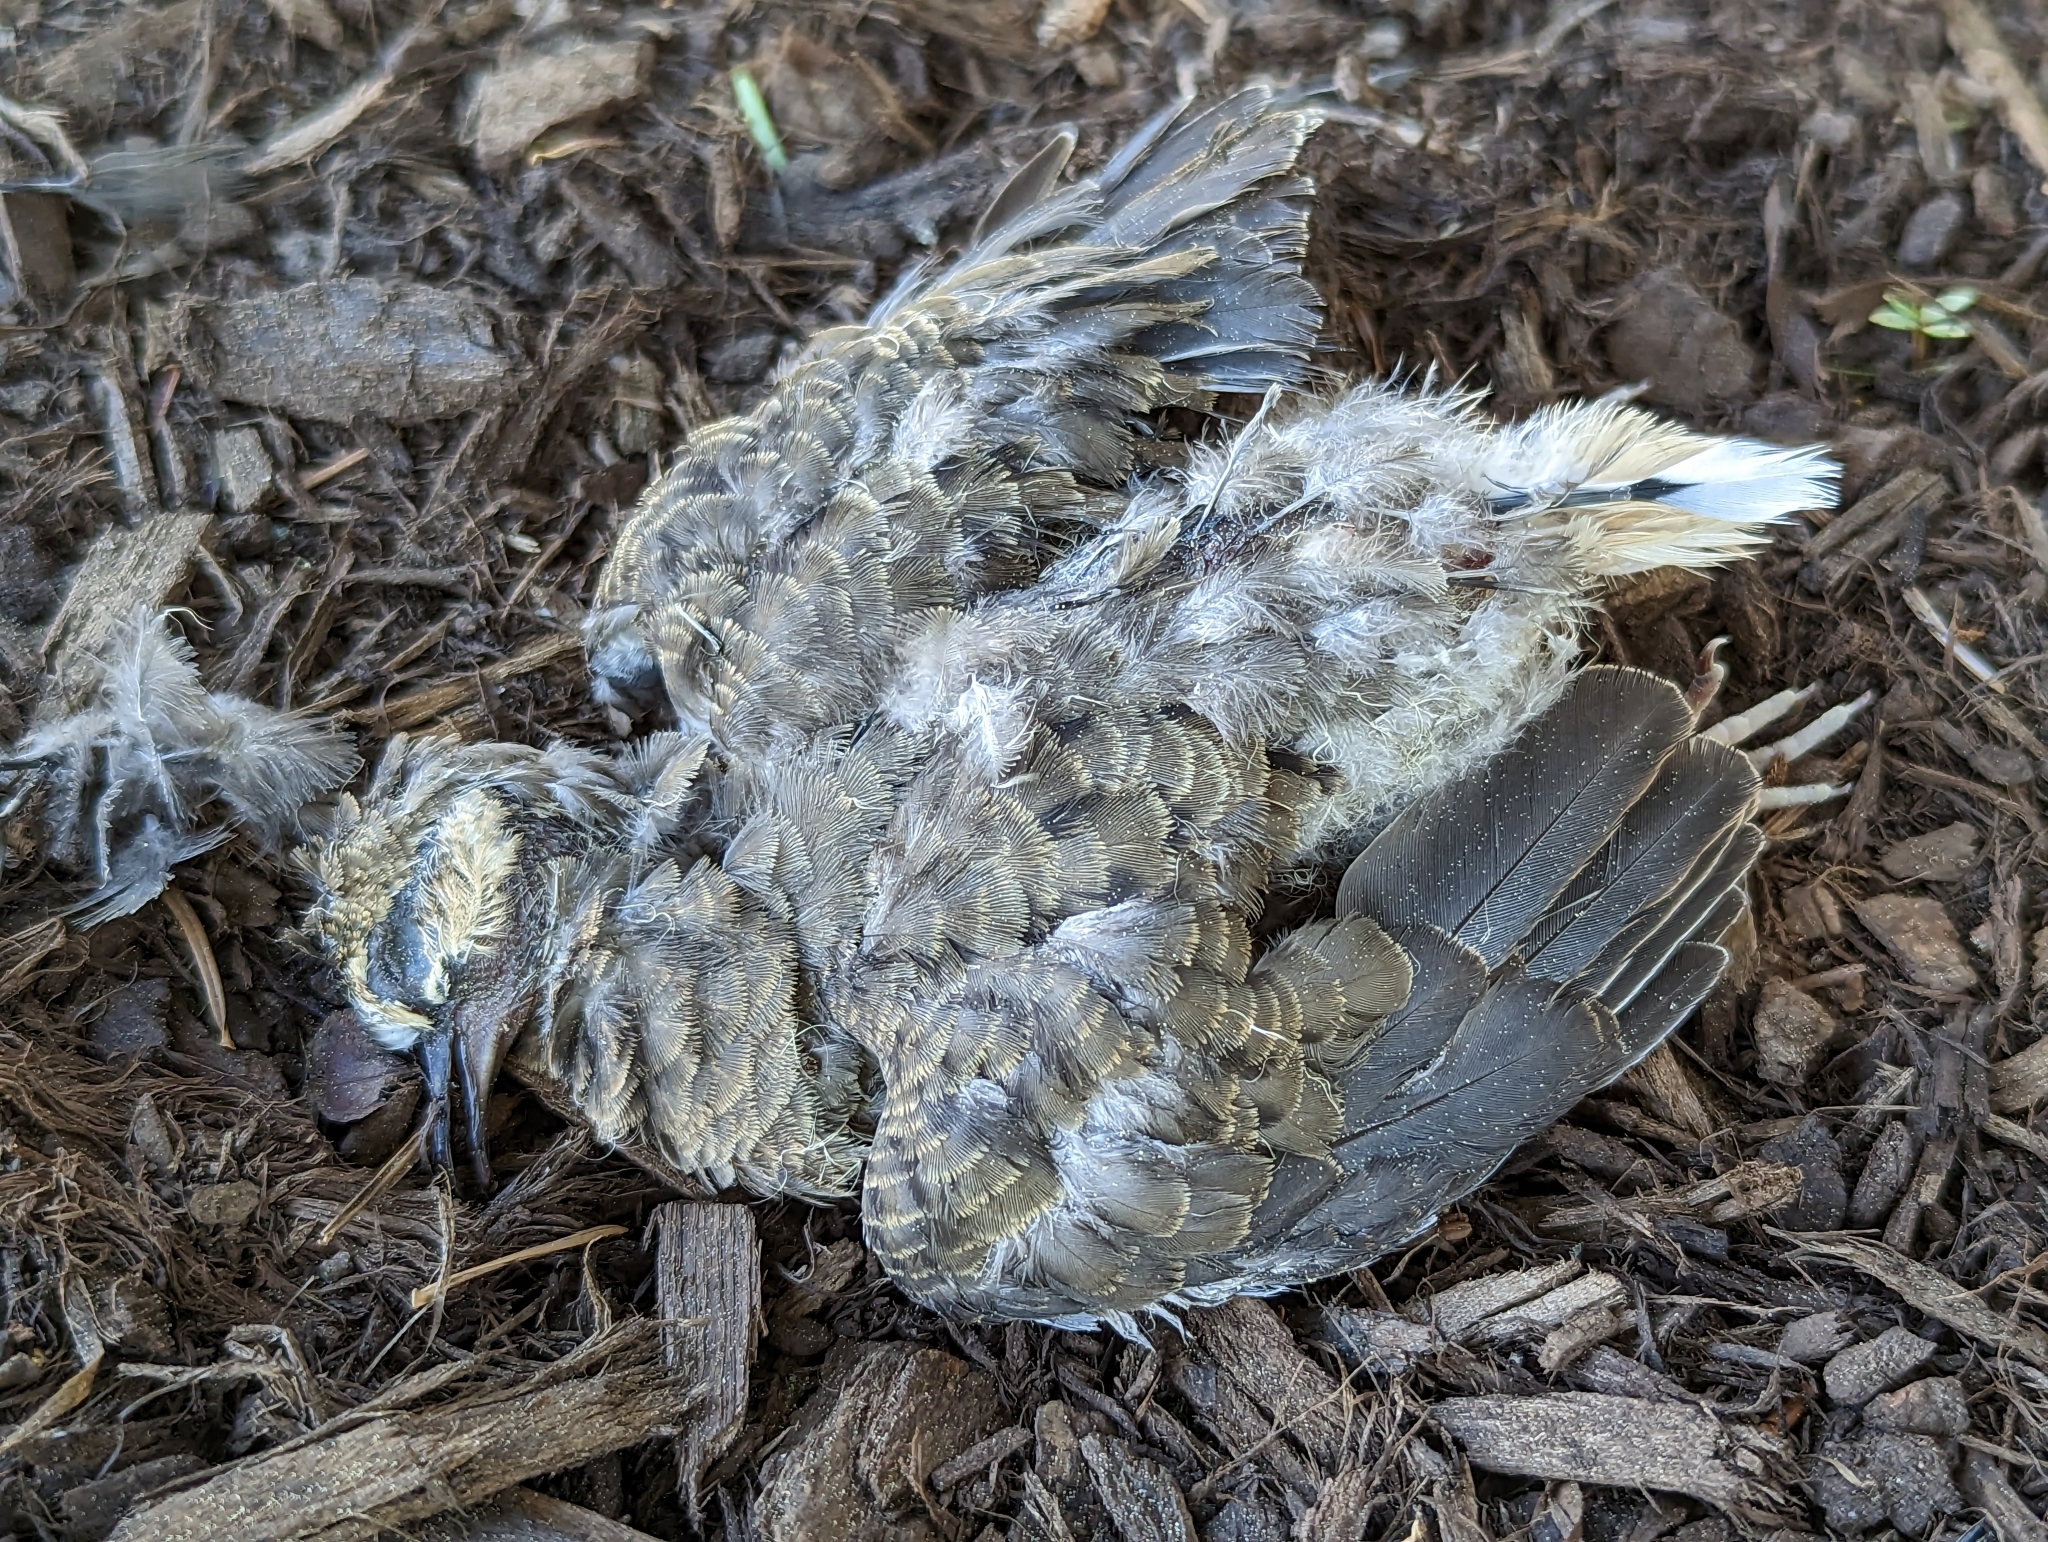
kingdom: Animalia
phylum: Chordata
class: Aves
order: Columbiformes
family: Columbidae
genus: Zenaida
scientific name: Zenaida macroura
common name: Mourning dove
